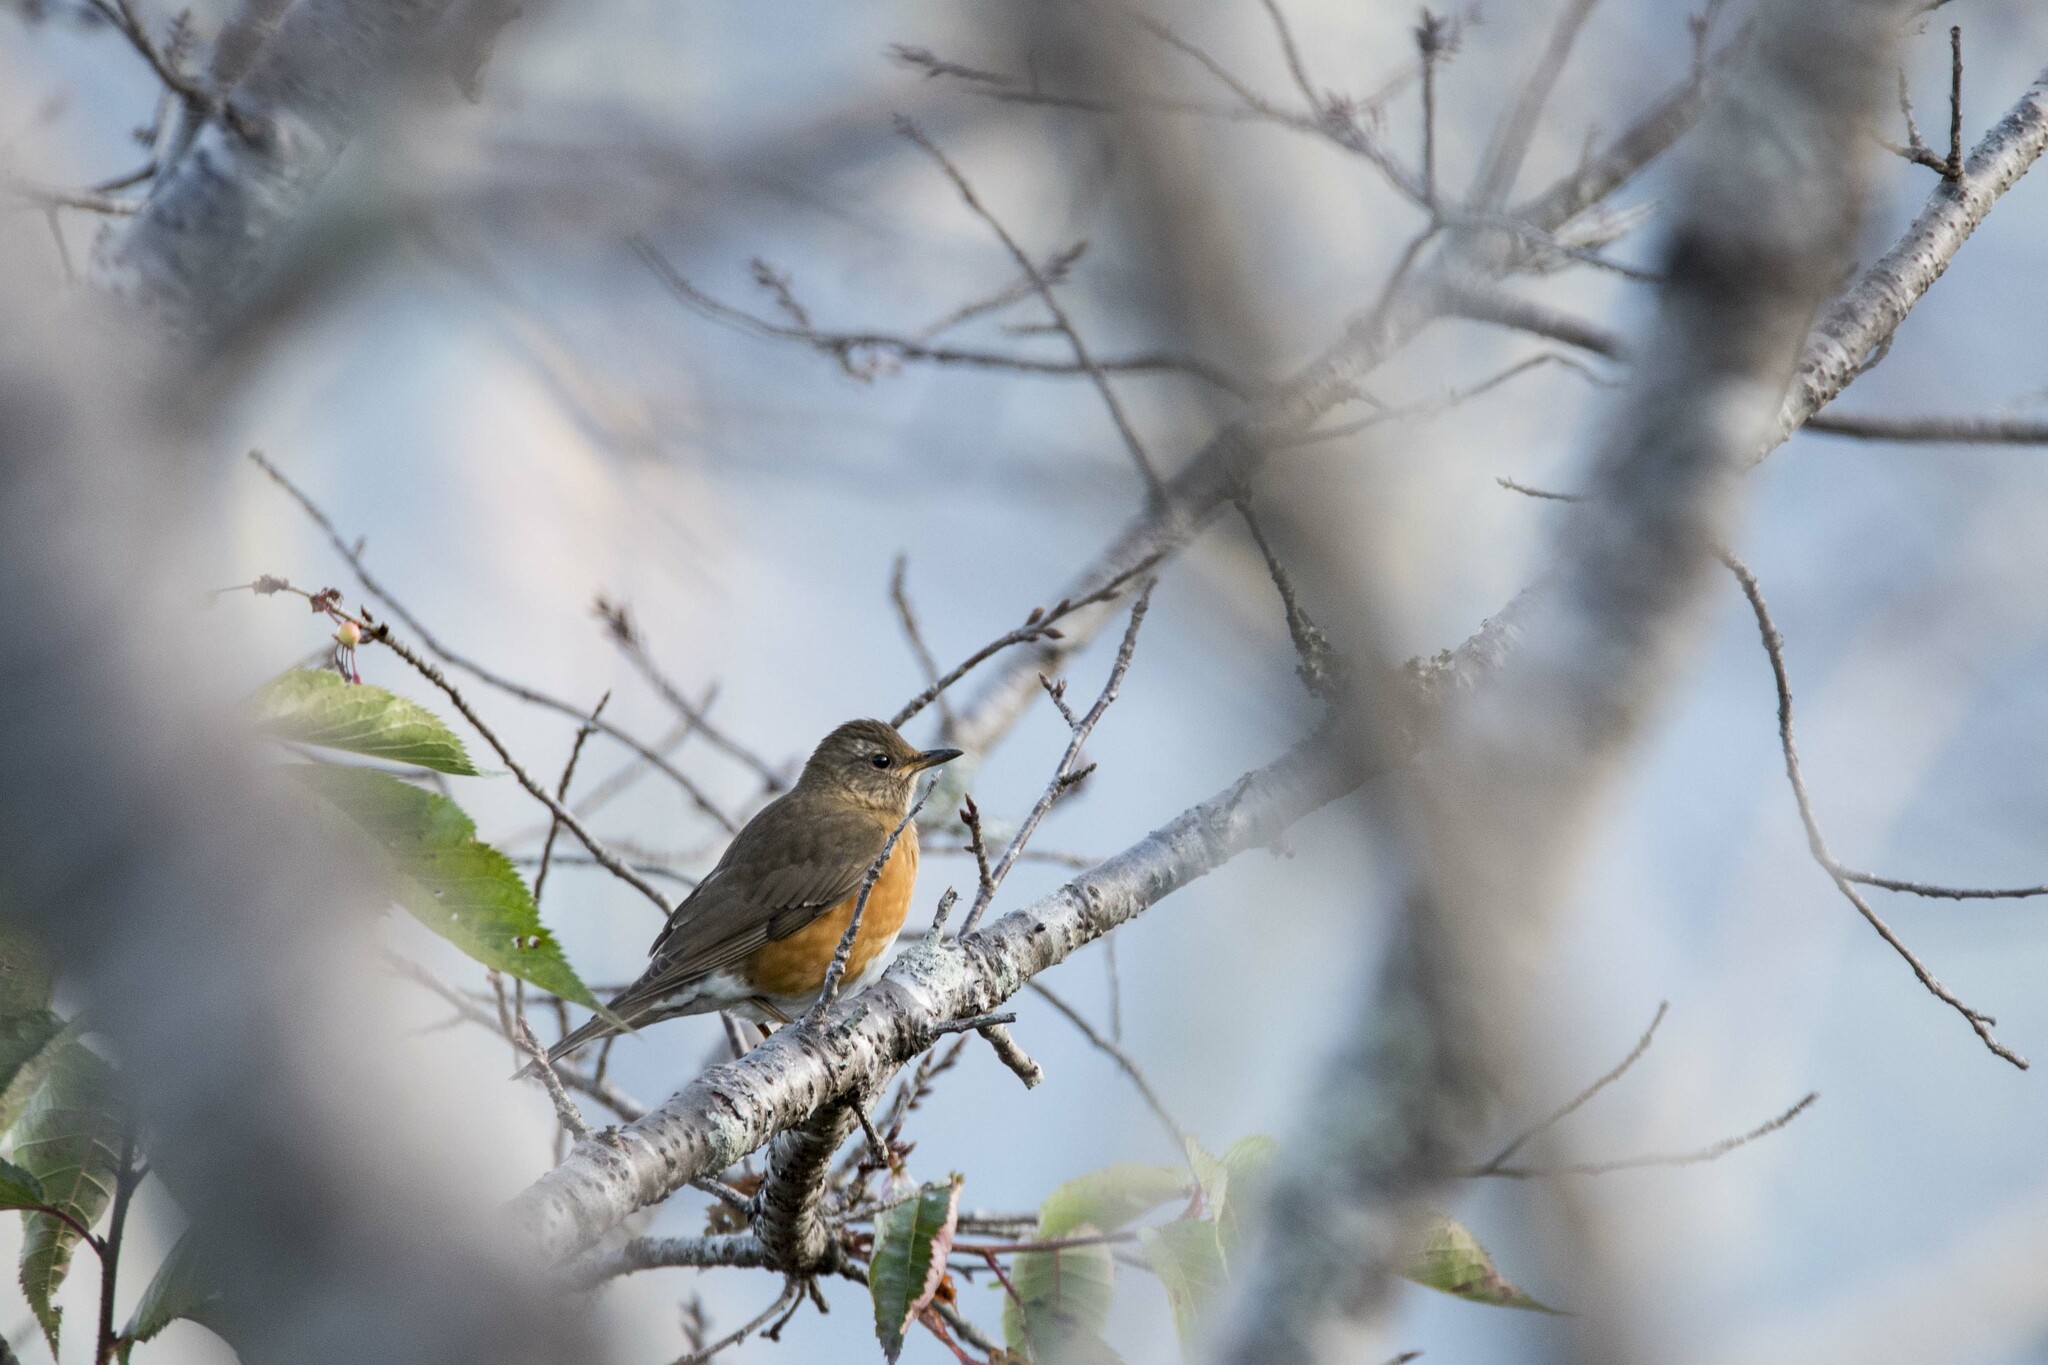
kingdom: Animalia
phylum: Chordata
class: Aves
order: Passeriformes
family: Turdidae
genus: Turdus
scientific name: Turdus chrysolaus
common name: Brown-headed thrush
